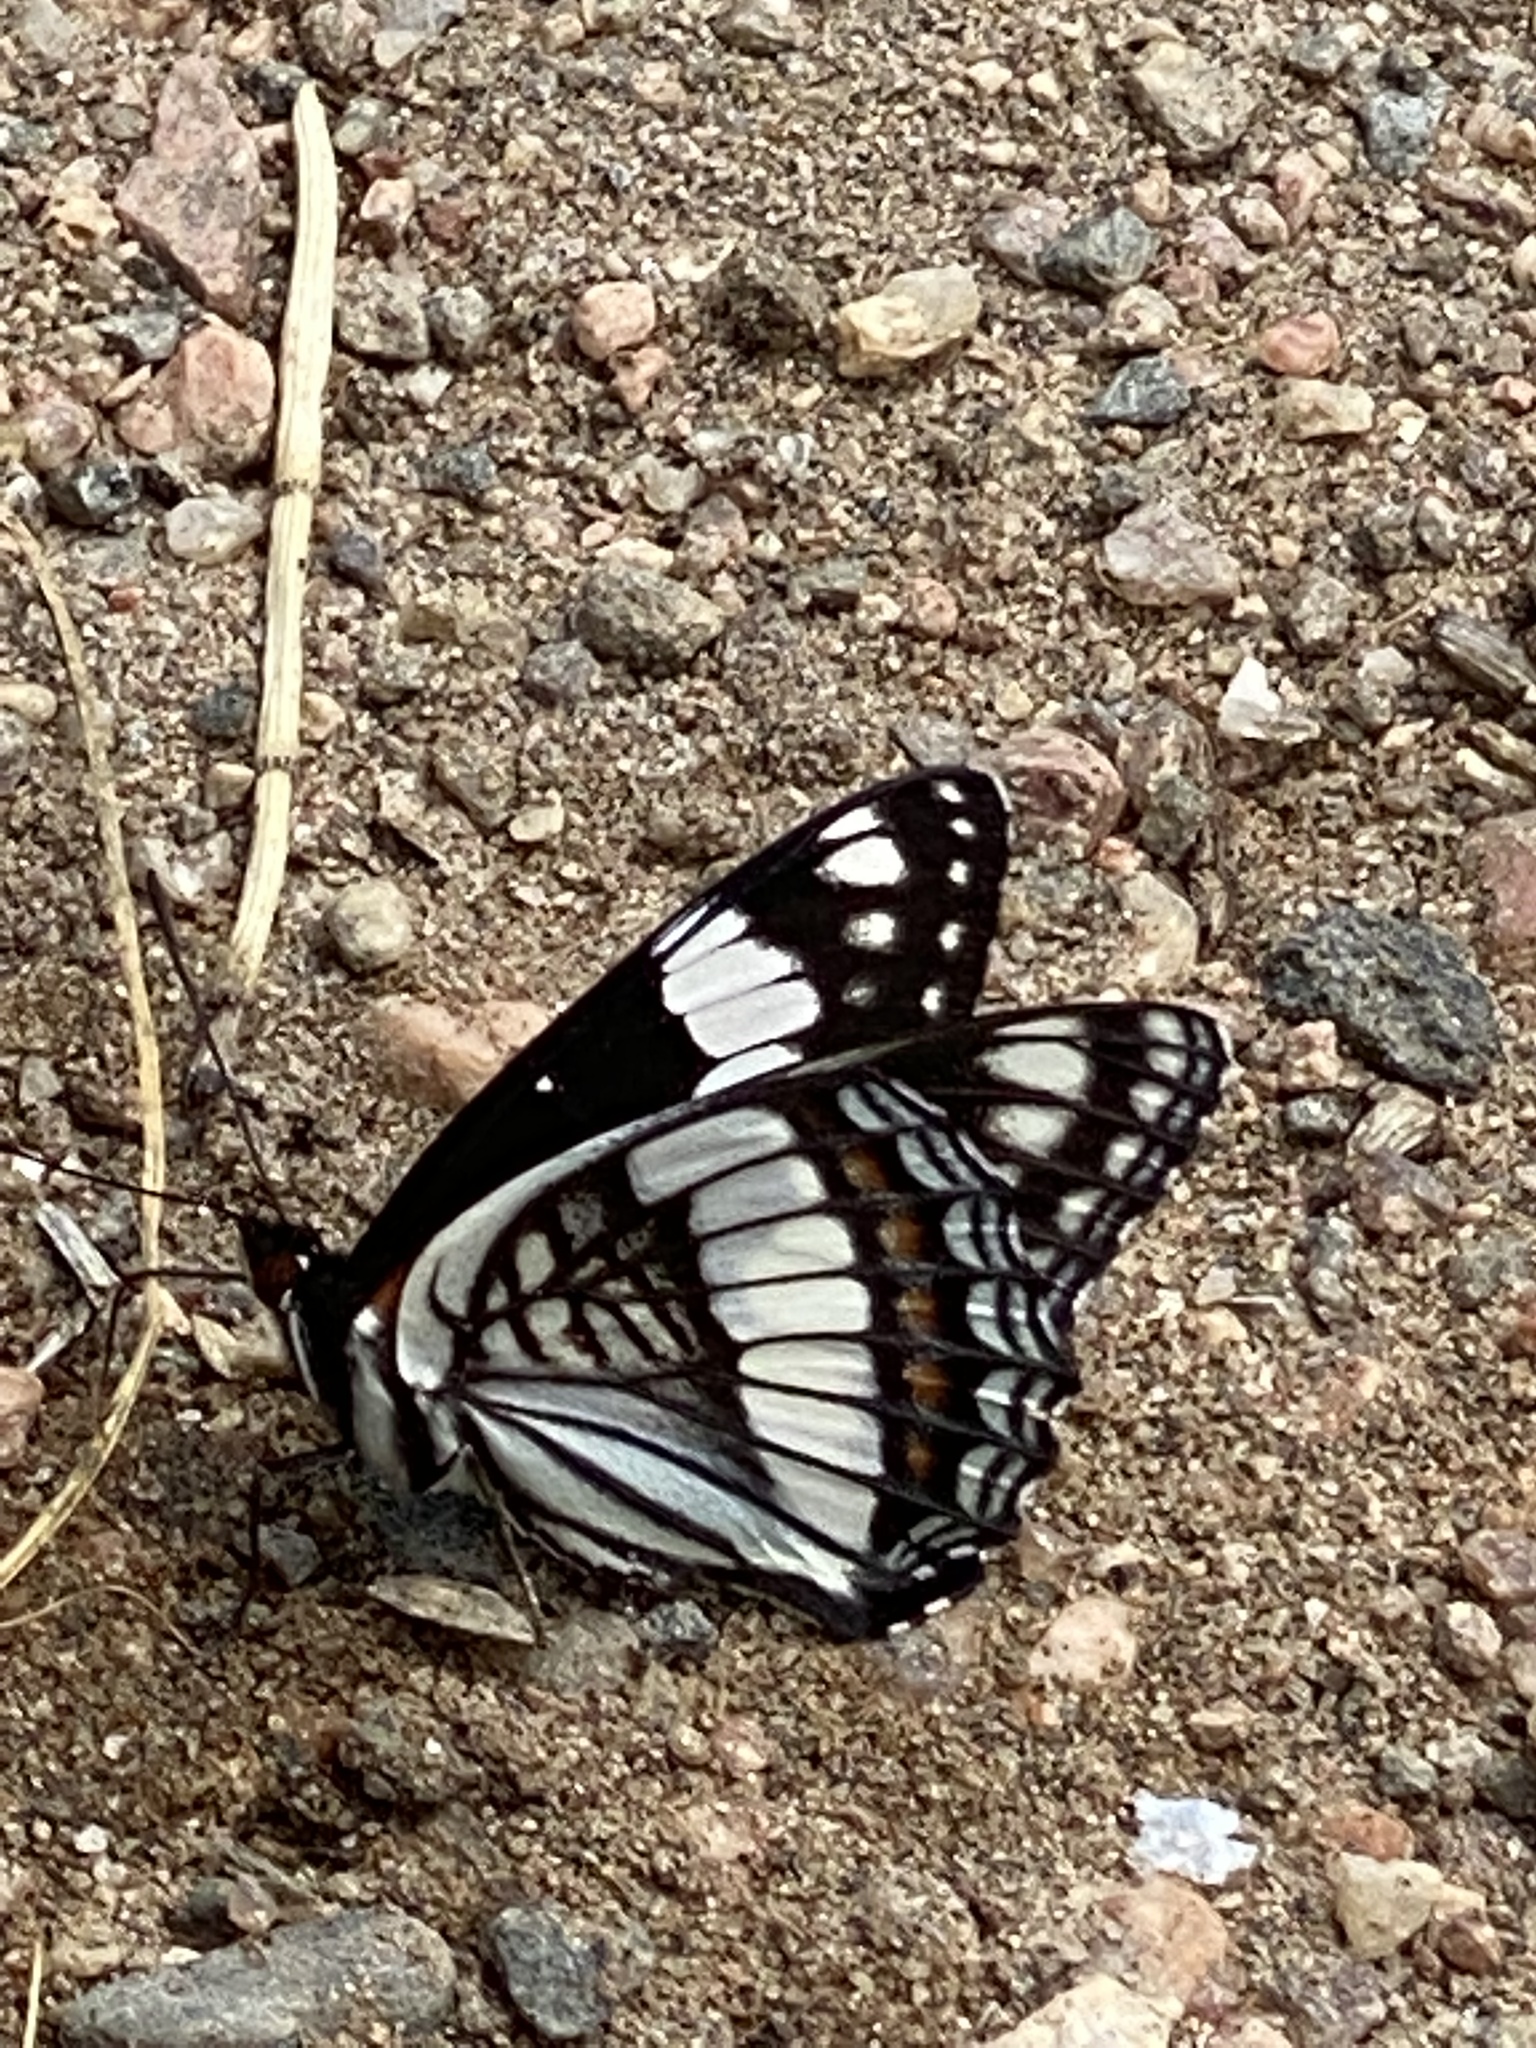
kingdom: Animalia
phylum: Arthropoda
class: Insecta
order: Lepidoptera
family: Nymphalidae
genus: Limenitis
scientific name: Limenitis weidemeyerii
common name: Weidemeyer's admiral
